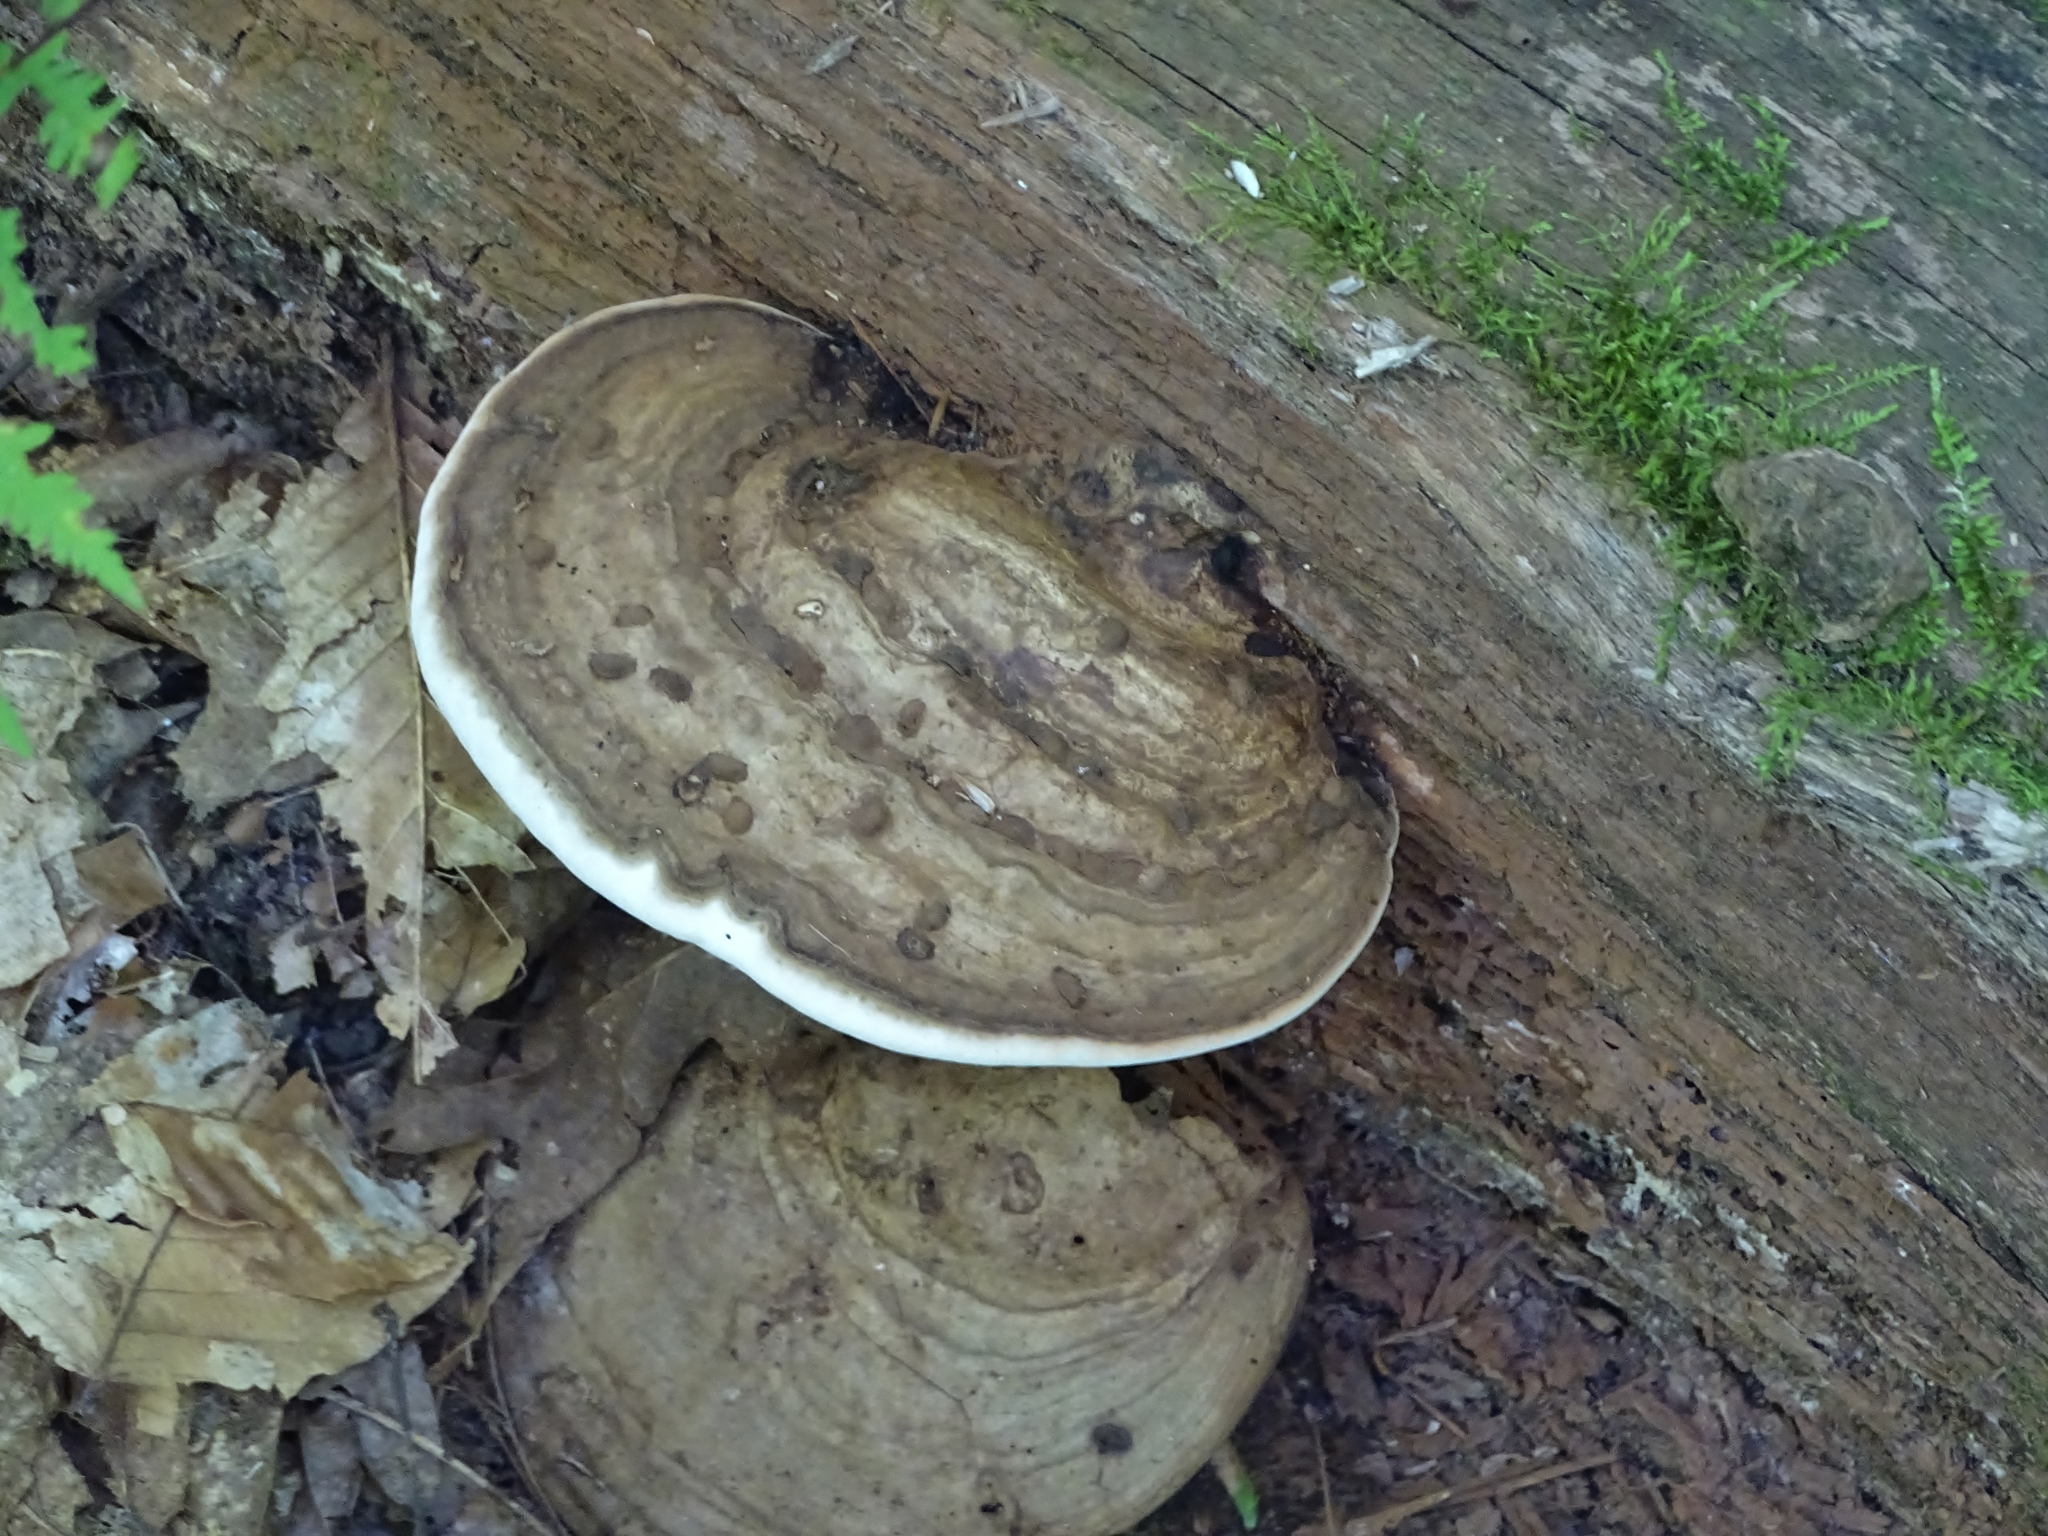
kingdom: Fungi
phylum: Basidiomycota
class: Agaricomycetes
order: Polyporales
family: Polyporaceae
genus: Ganoderma
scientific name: Ganoderma applanatum
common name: Artist's bracket
